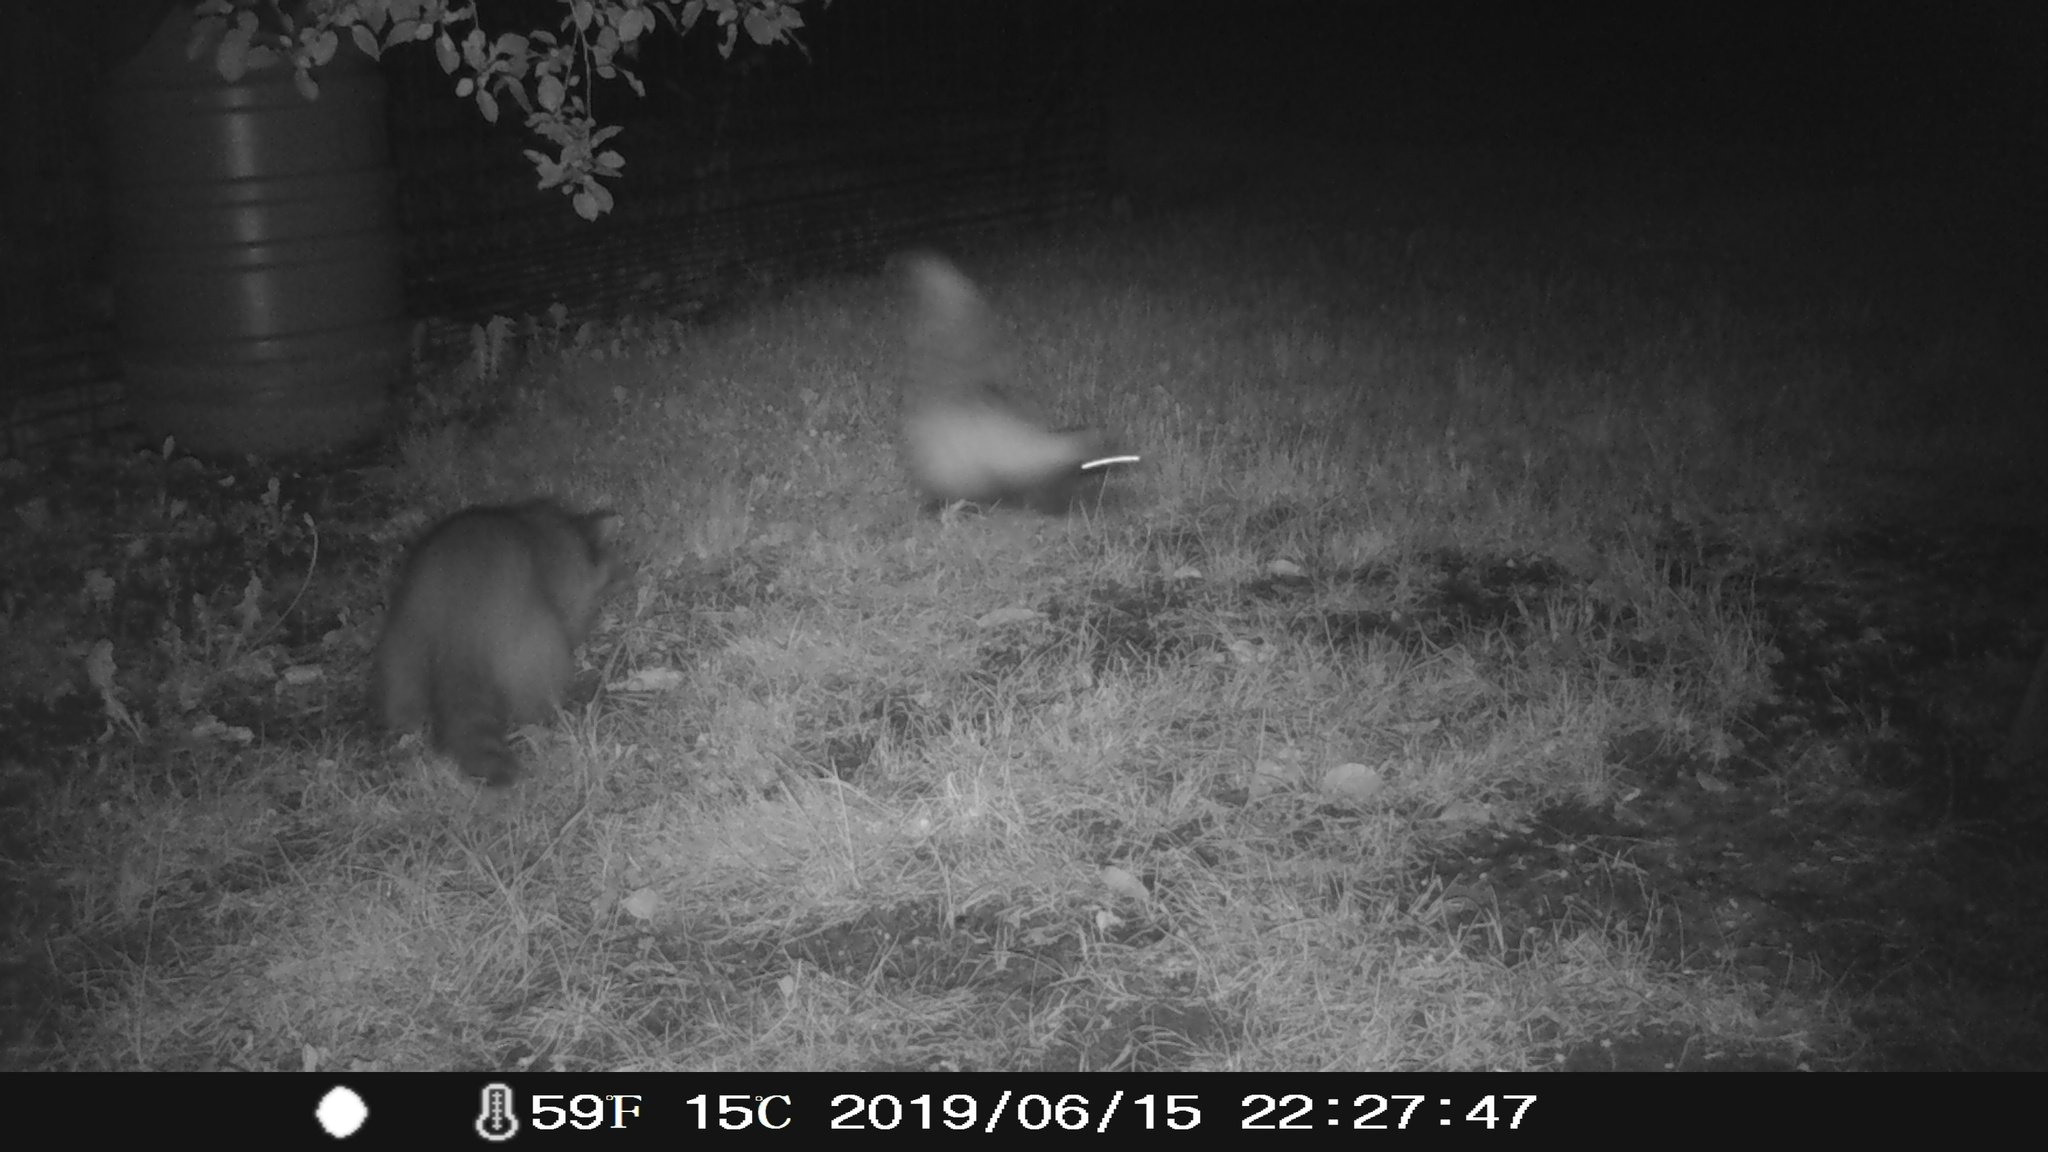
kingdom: Animalia
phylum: Chordata
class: Mammalia
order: Carnivora
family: Mephitidae
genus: Mephitis
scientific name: Mephitis mephitis
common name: Striped skunk
